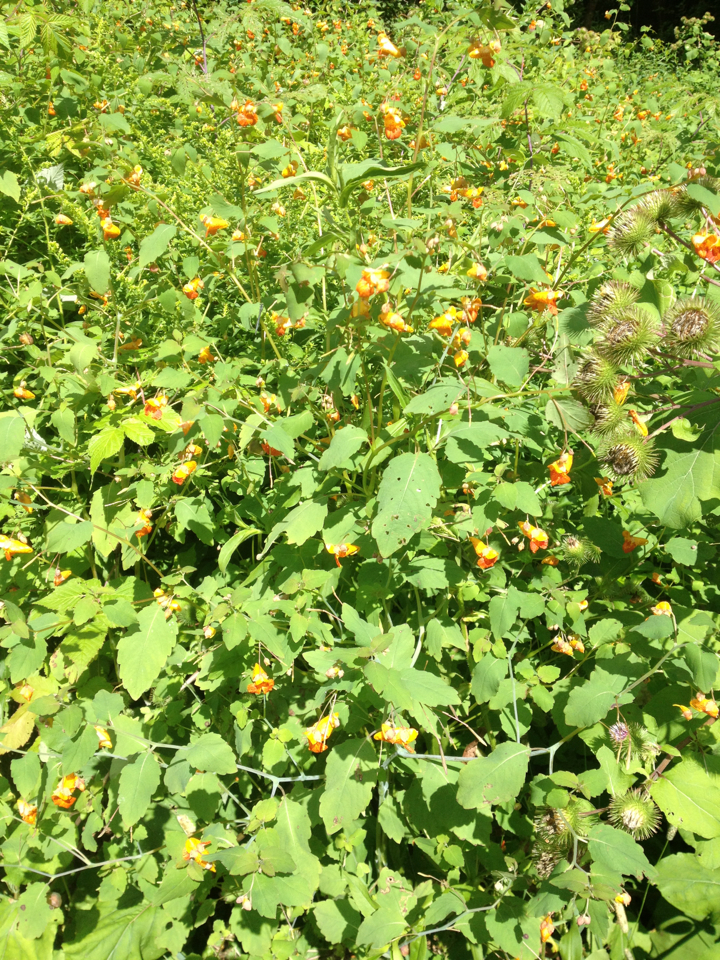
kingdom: Plantae
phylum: Tracheophyta
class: Magnoliopsida
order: Ericales
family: Balsaminaceae
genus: Impatiens
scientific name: Impatiens capensis
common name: Orange balsam
